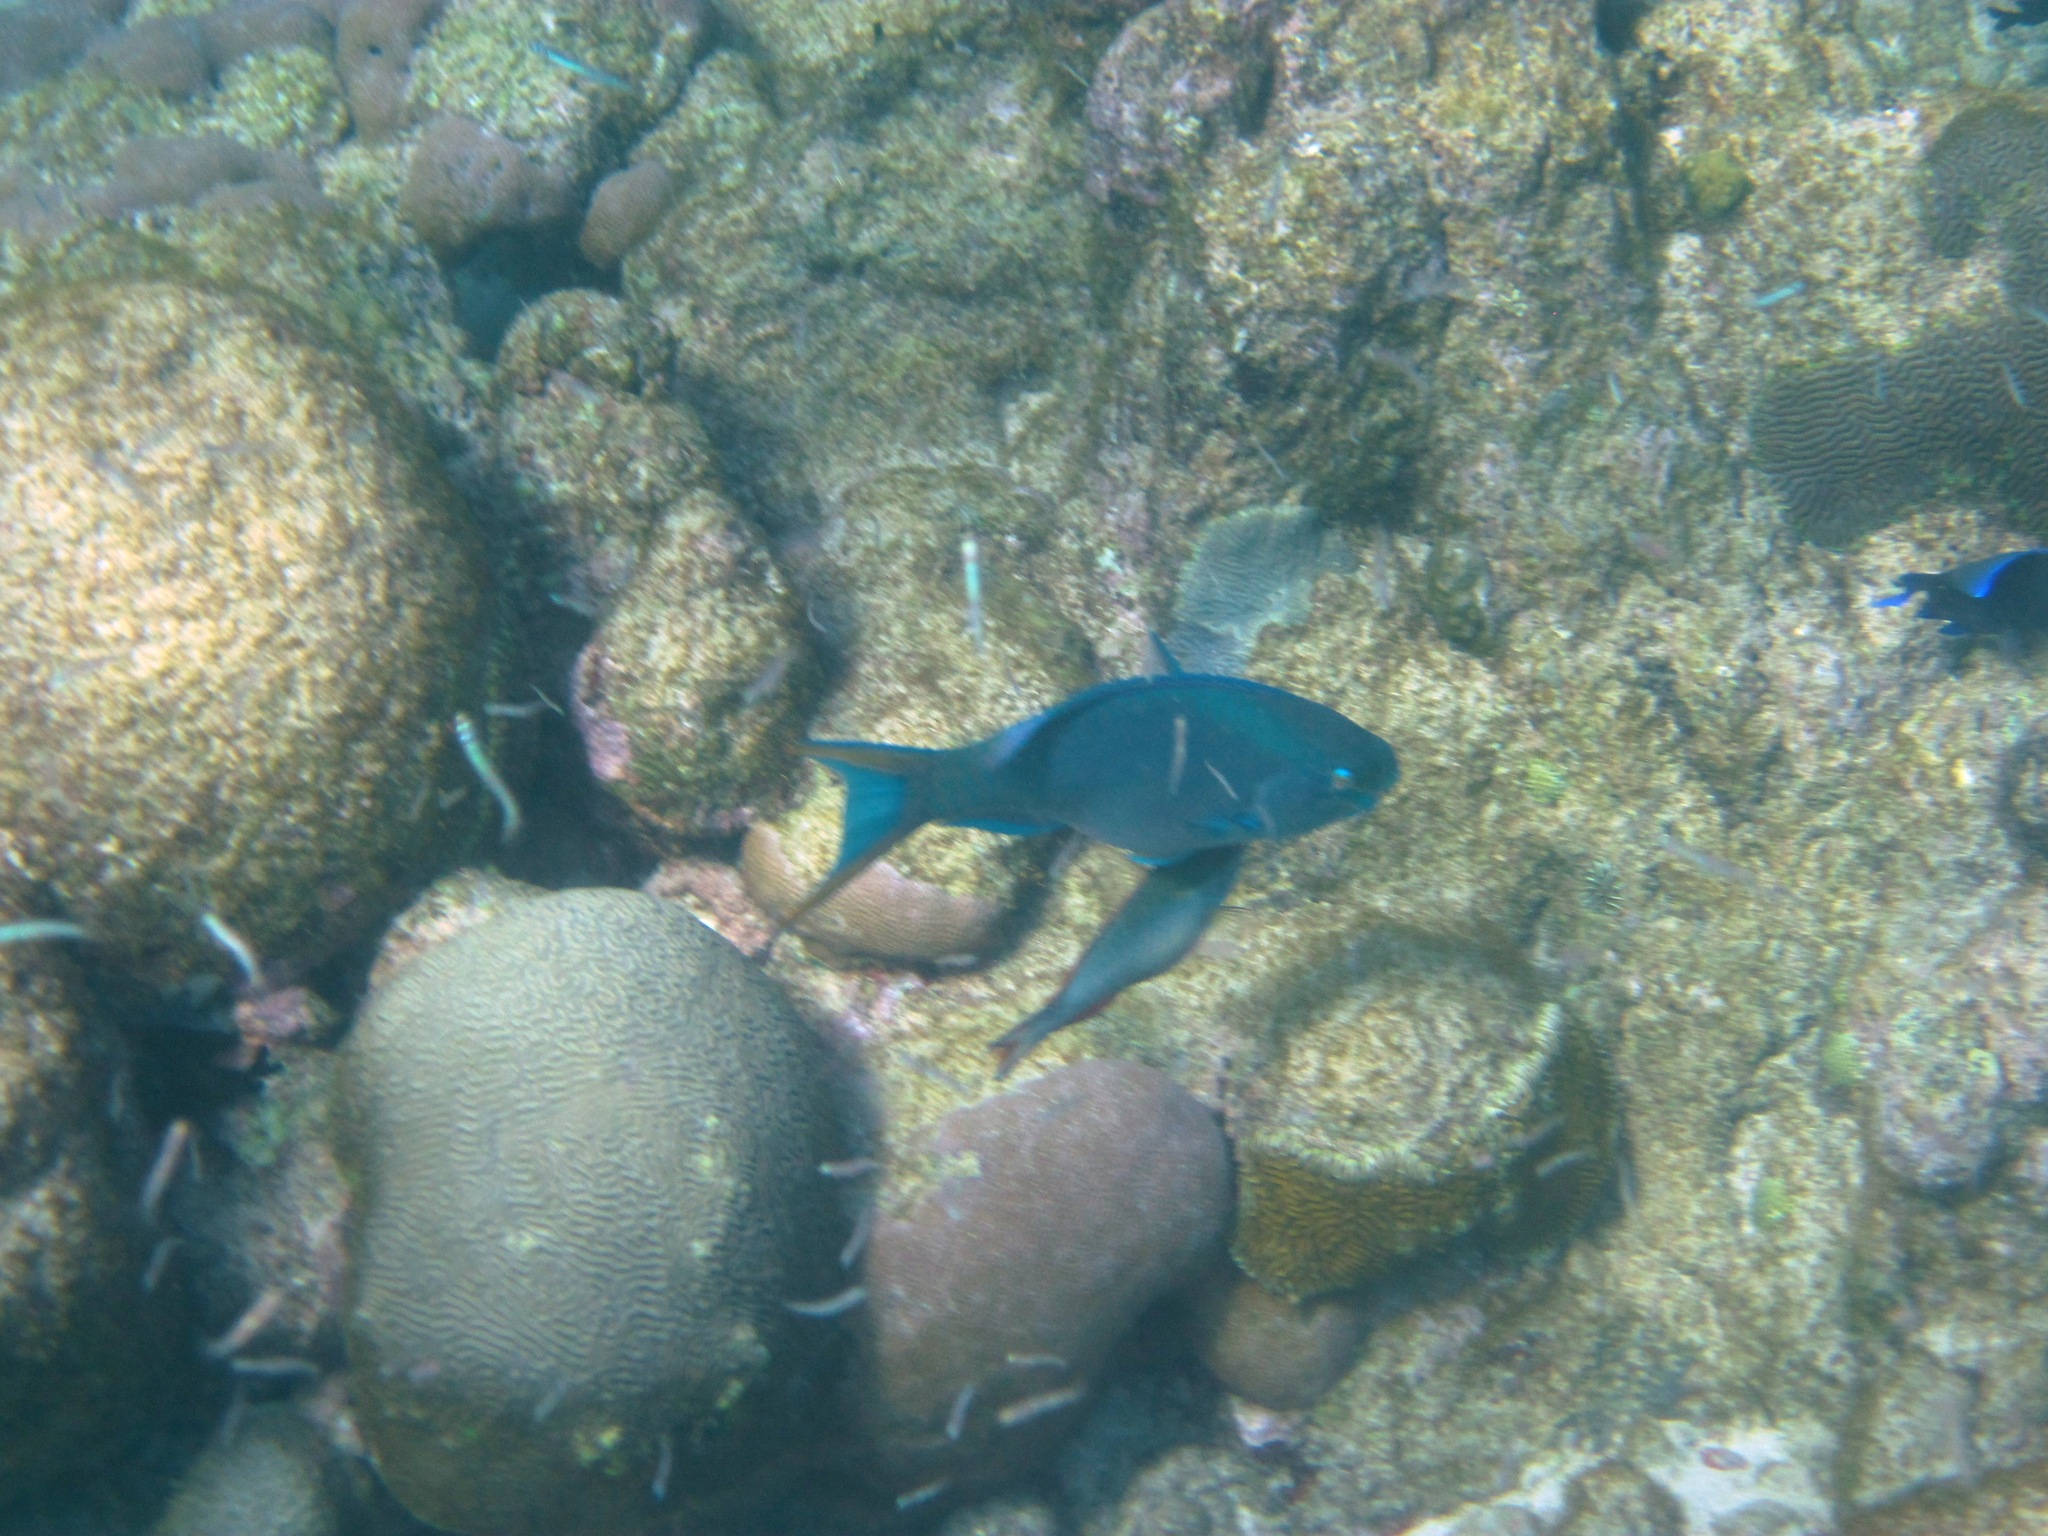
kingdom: Animalia
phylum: Chordata
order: Perciformes
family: Scaridae
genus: Scarus
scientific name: Scarus vetula
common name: Queen parrotfish
